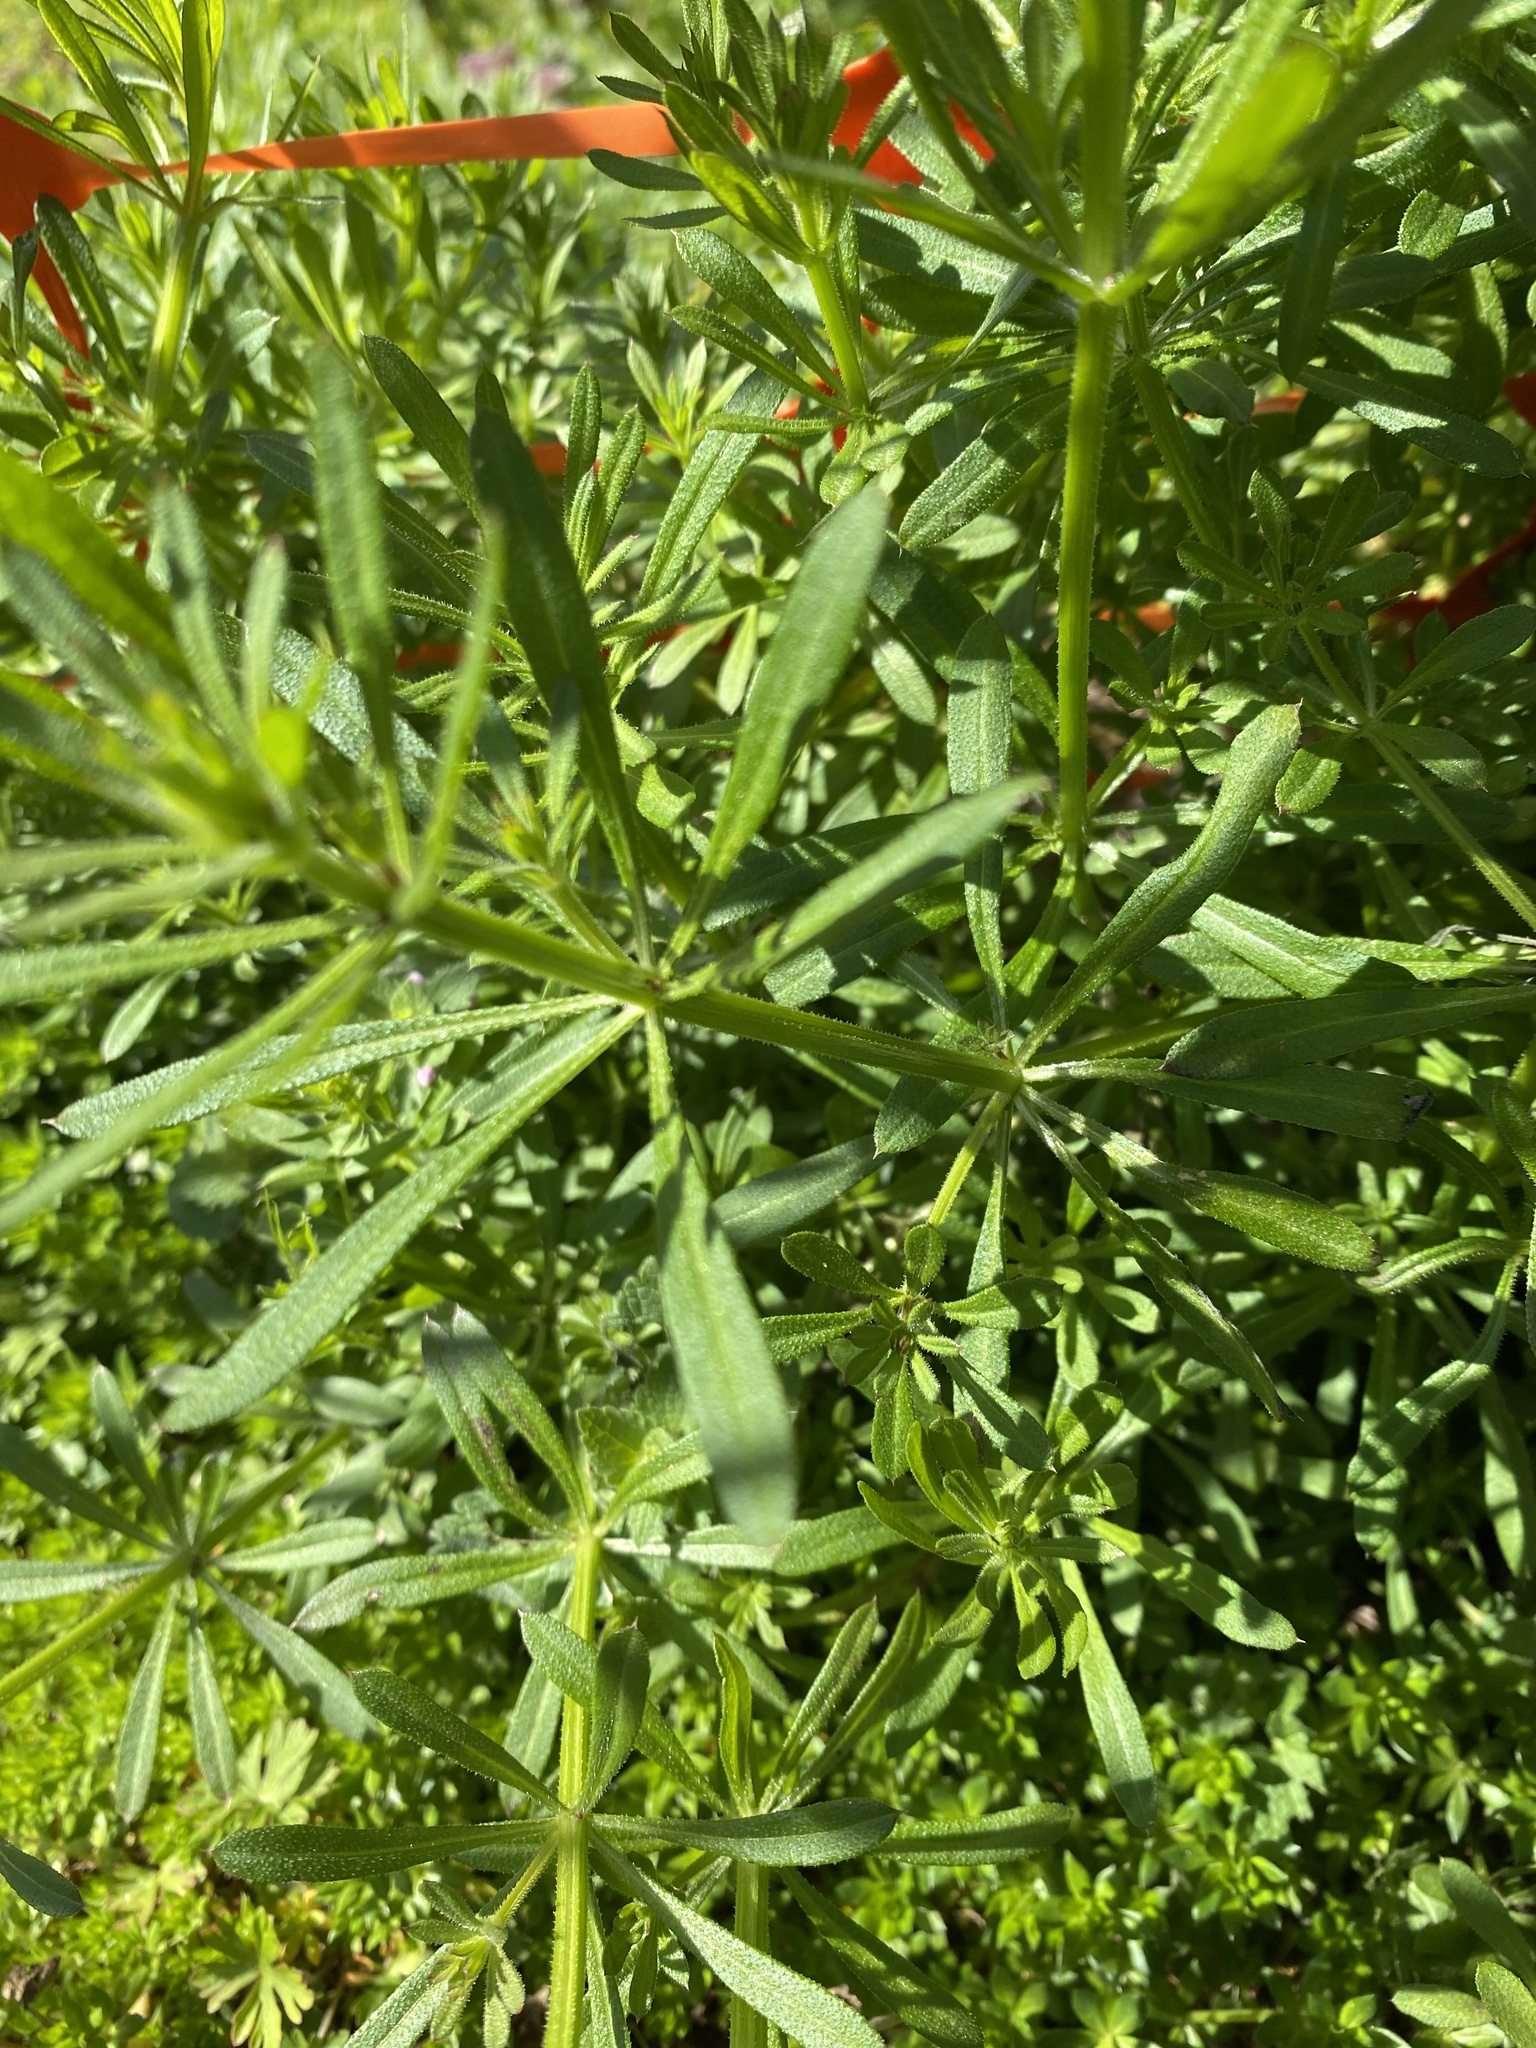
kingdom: Plantae
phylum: Tracheophyta
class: Magnoliopsida
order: Gentianales
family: Rubiaceae
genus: Galium
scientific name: Galium aparine
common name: Cleavers
